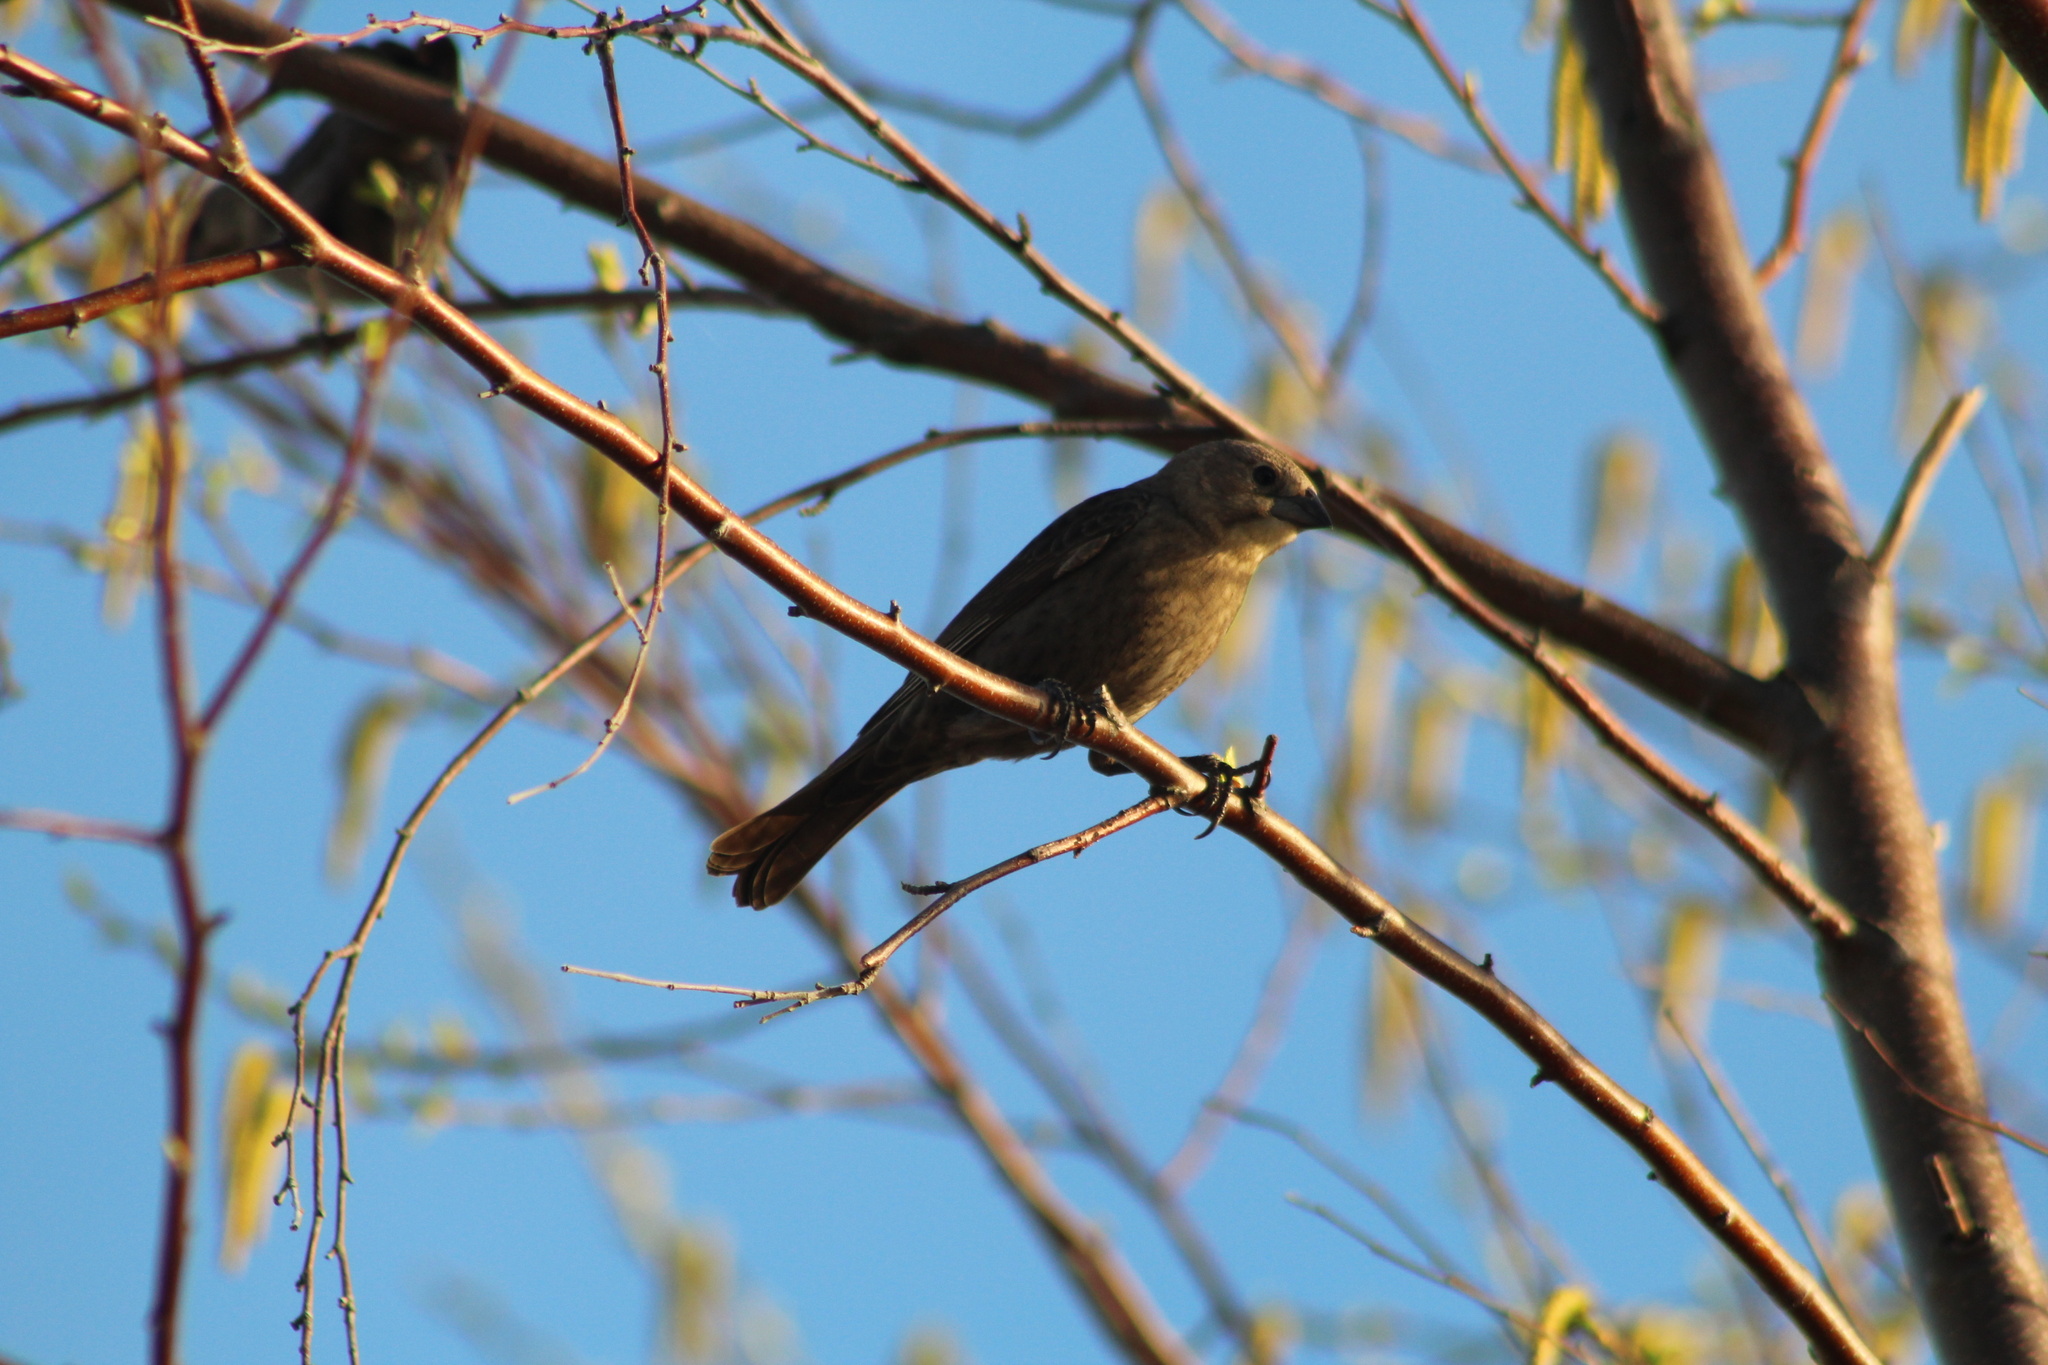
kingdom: Animalia
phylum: Chordata
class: Aves
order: Passeriformes
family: Icteridae
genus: Molothrus
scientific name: Molothrus ater
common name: Brown-headed cowbird
